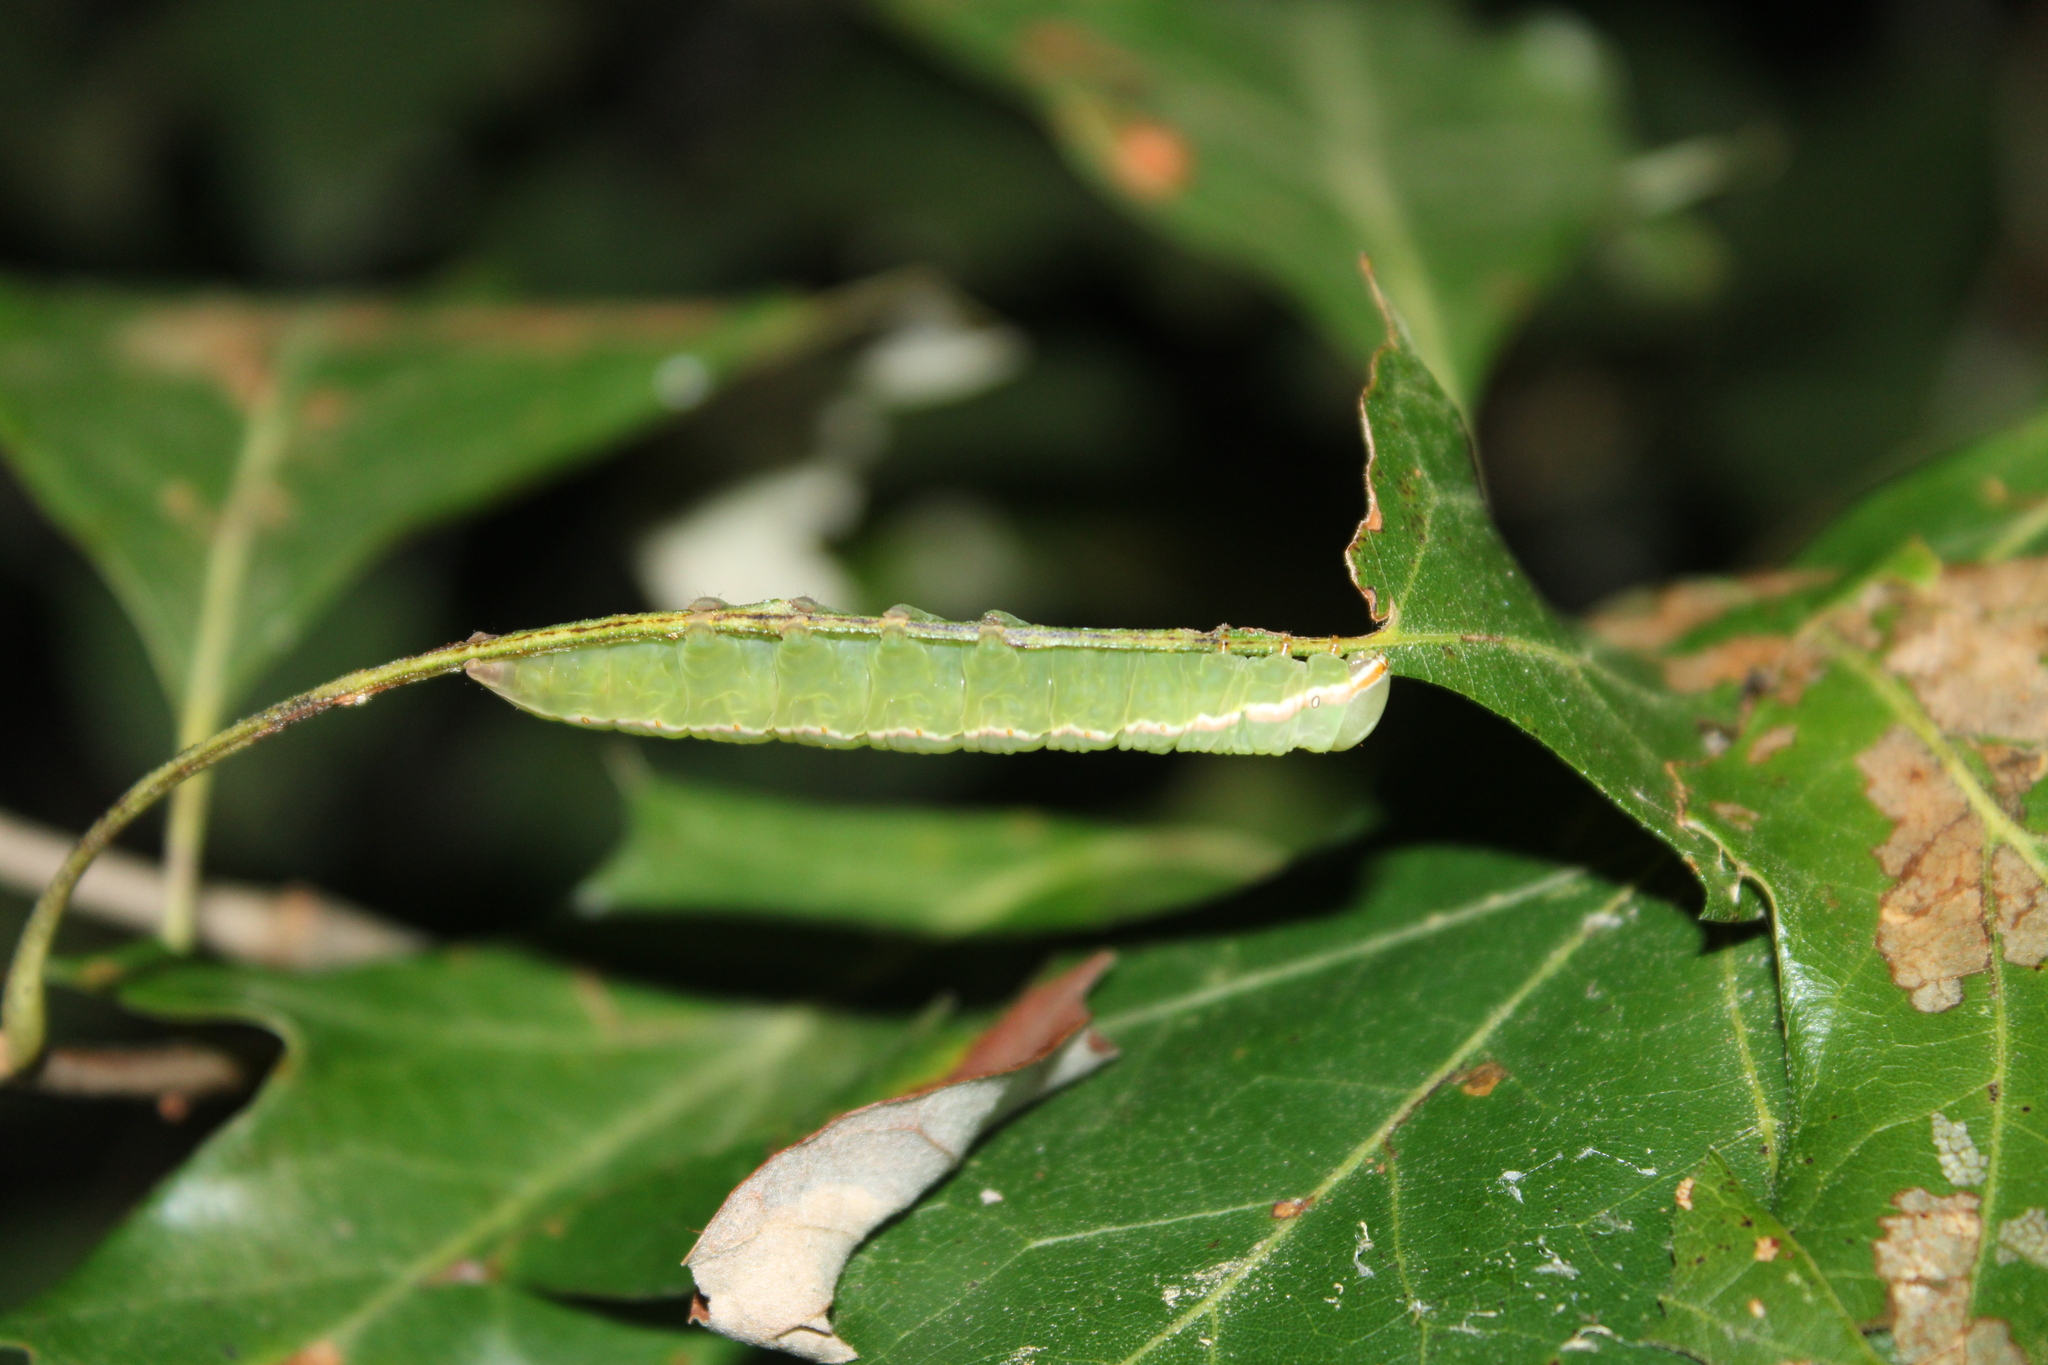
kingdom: Animalia
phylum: Arthropoda
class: Insecta
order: Lepidoptera
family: Notodontidae
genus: Peridea
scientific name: Peridea angulosa
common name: Angulose prominent
